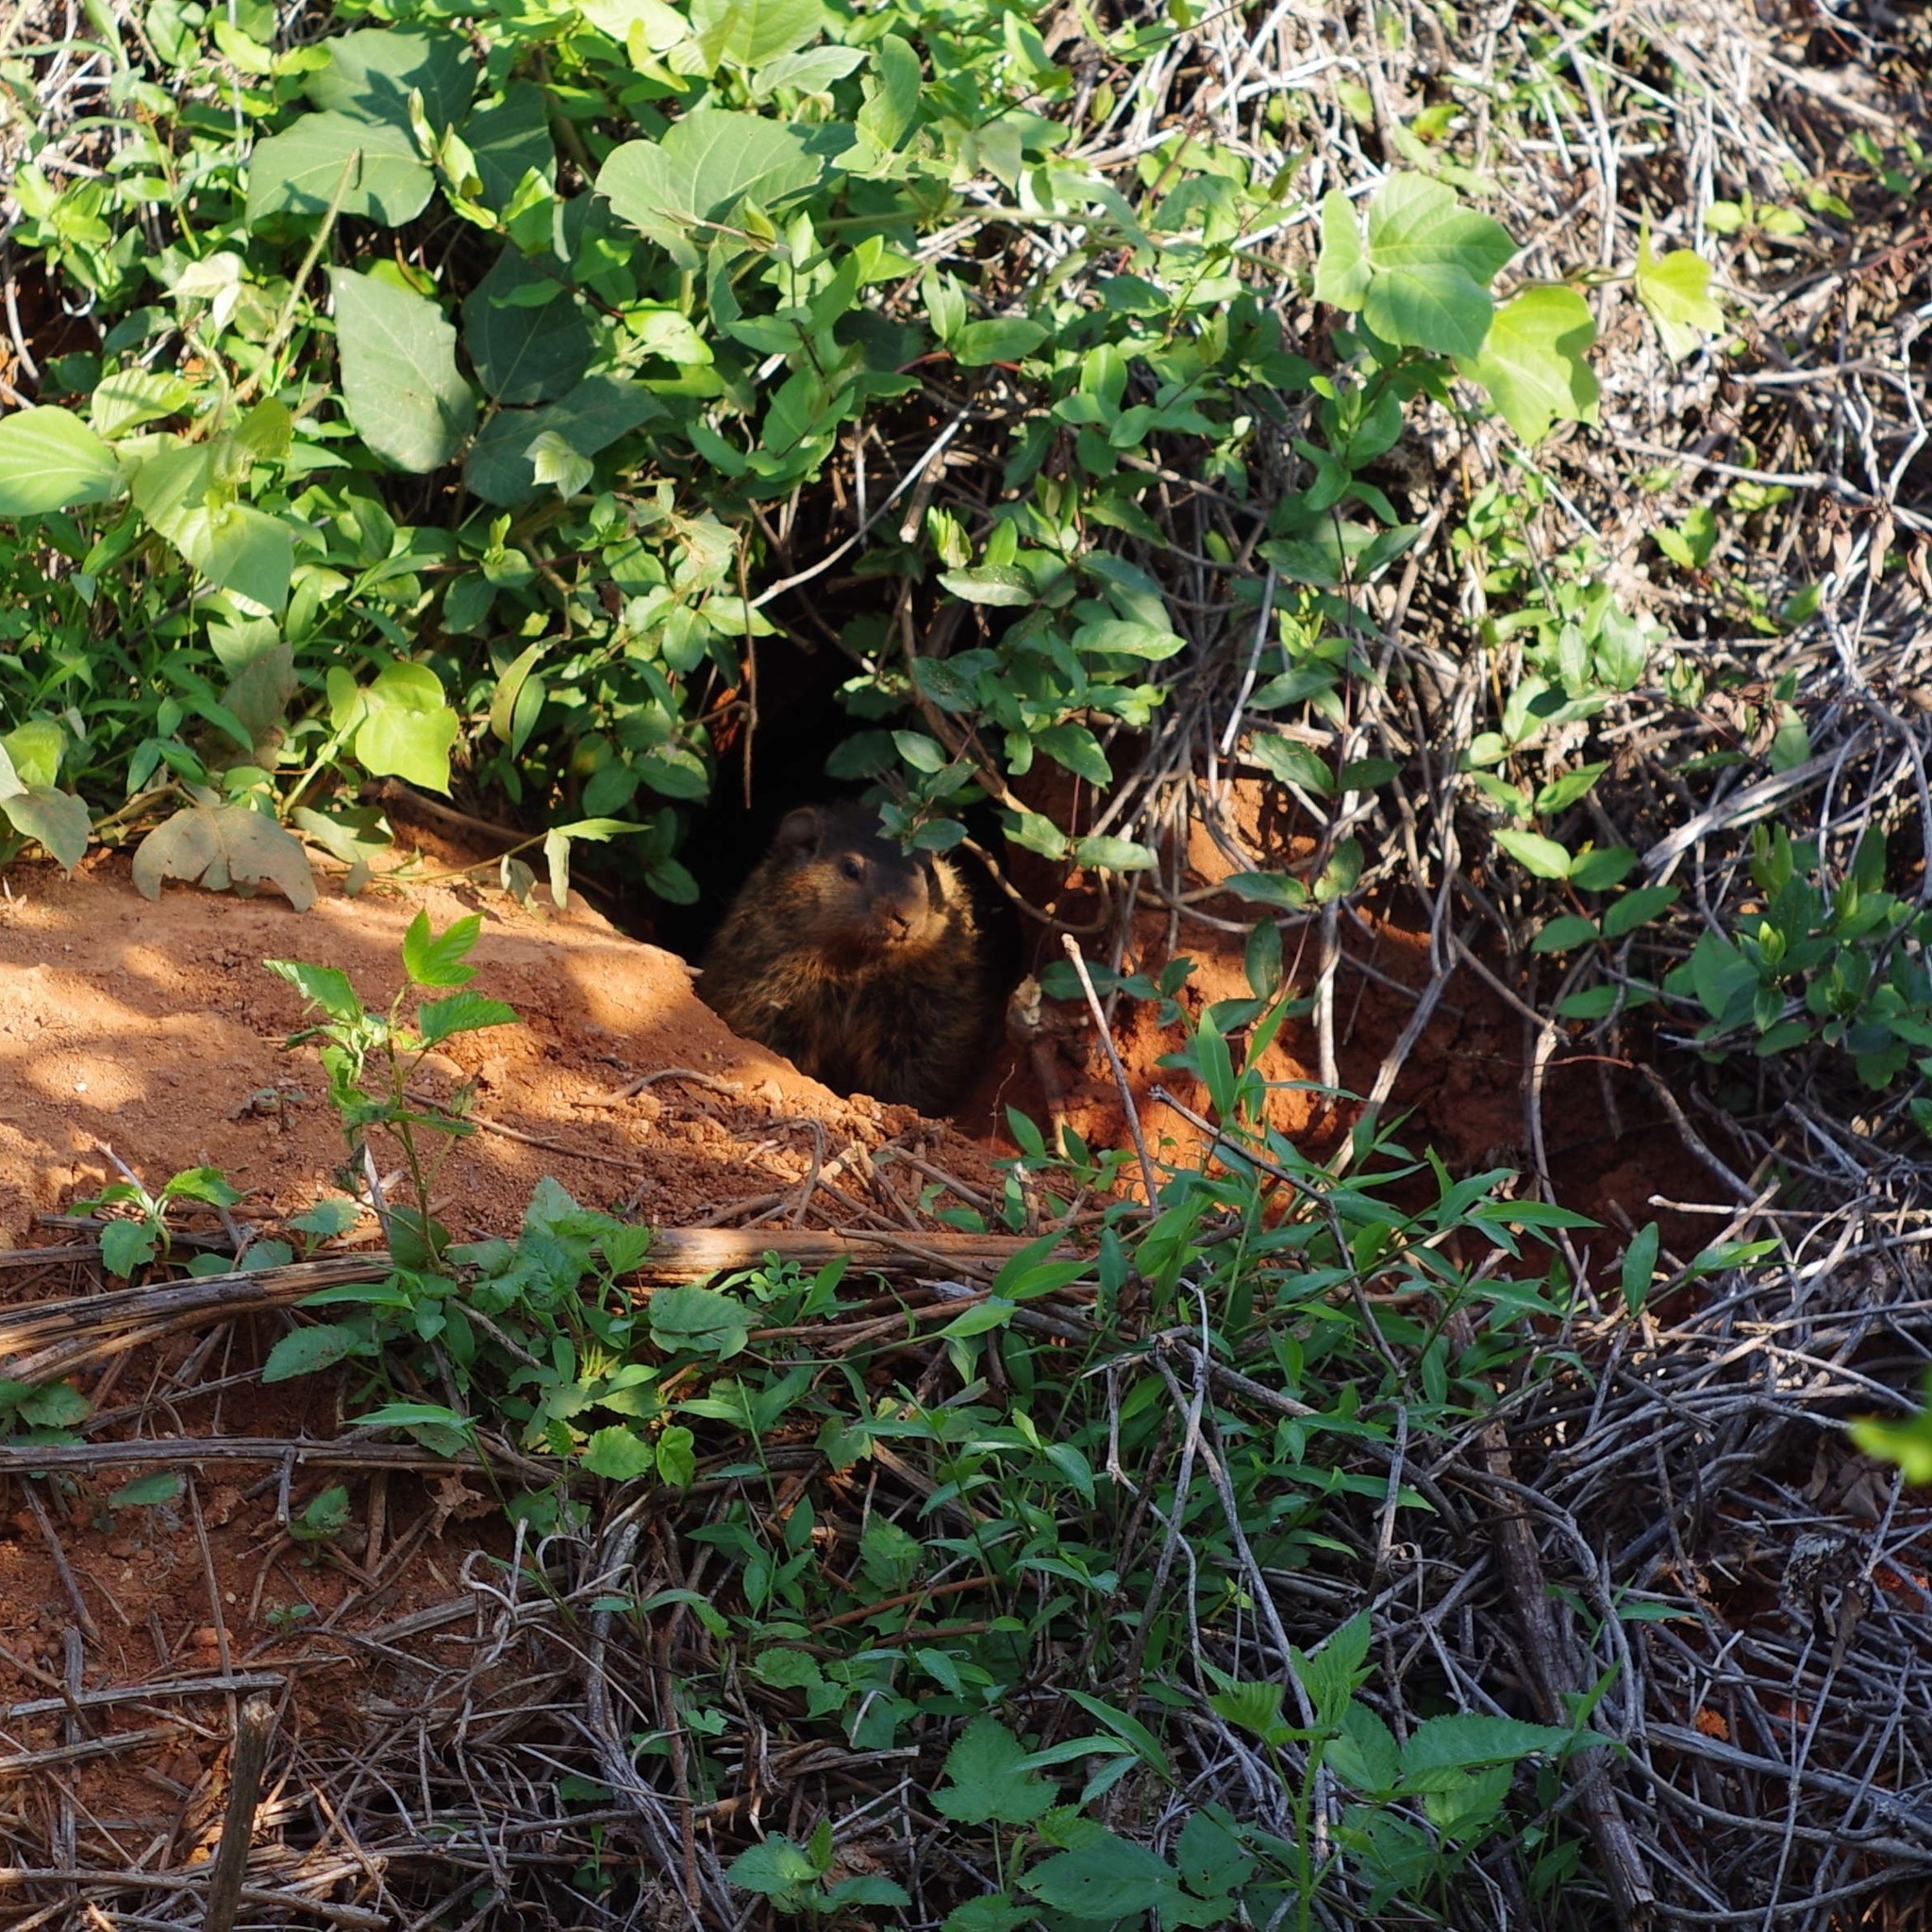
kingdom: Animalia
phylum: Chordata
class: Mammalia
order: Rodentia
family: Sciuridae
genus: Marmota
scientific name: Marmota monax
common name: Groundhog
